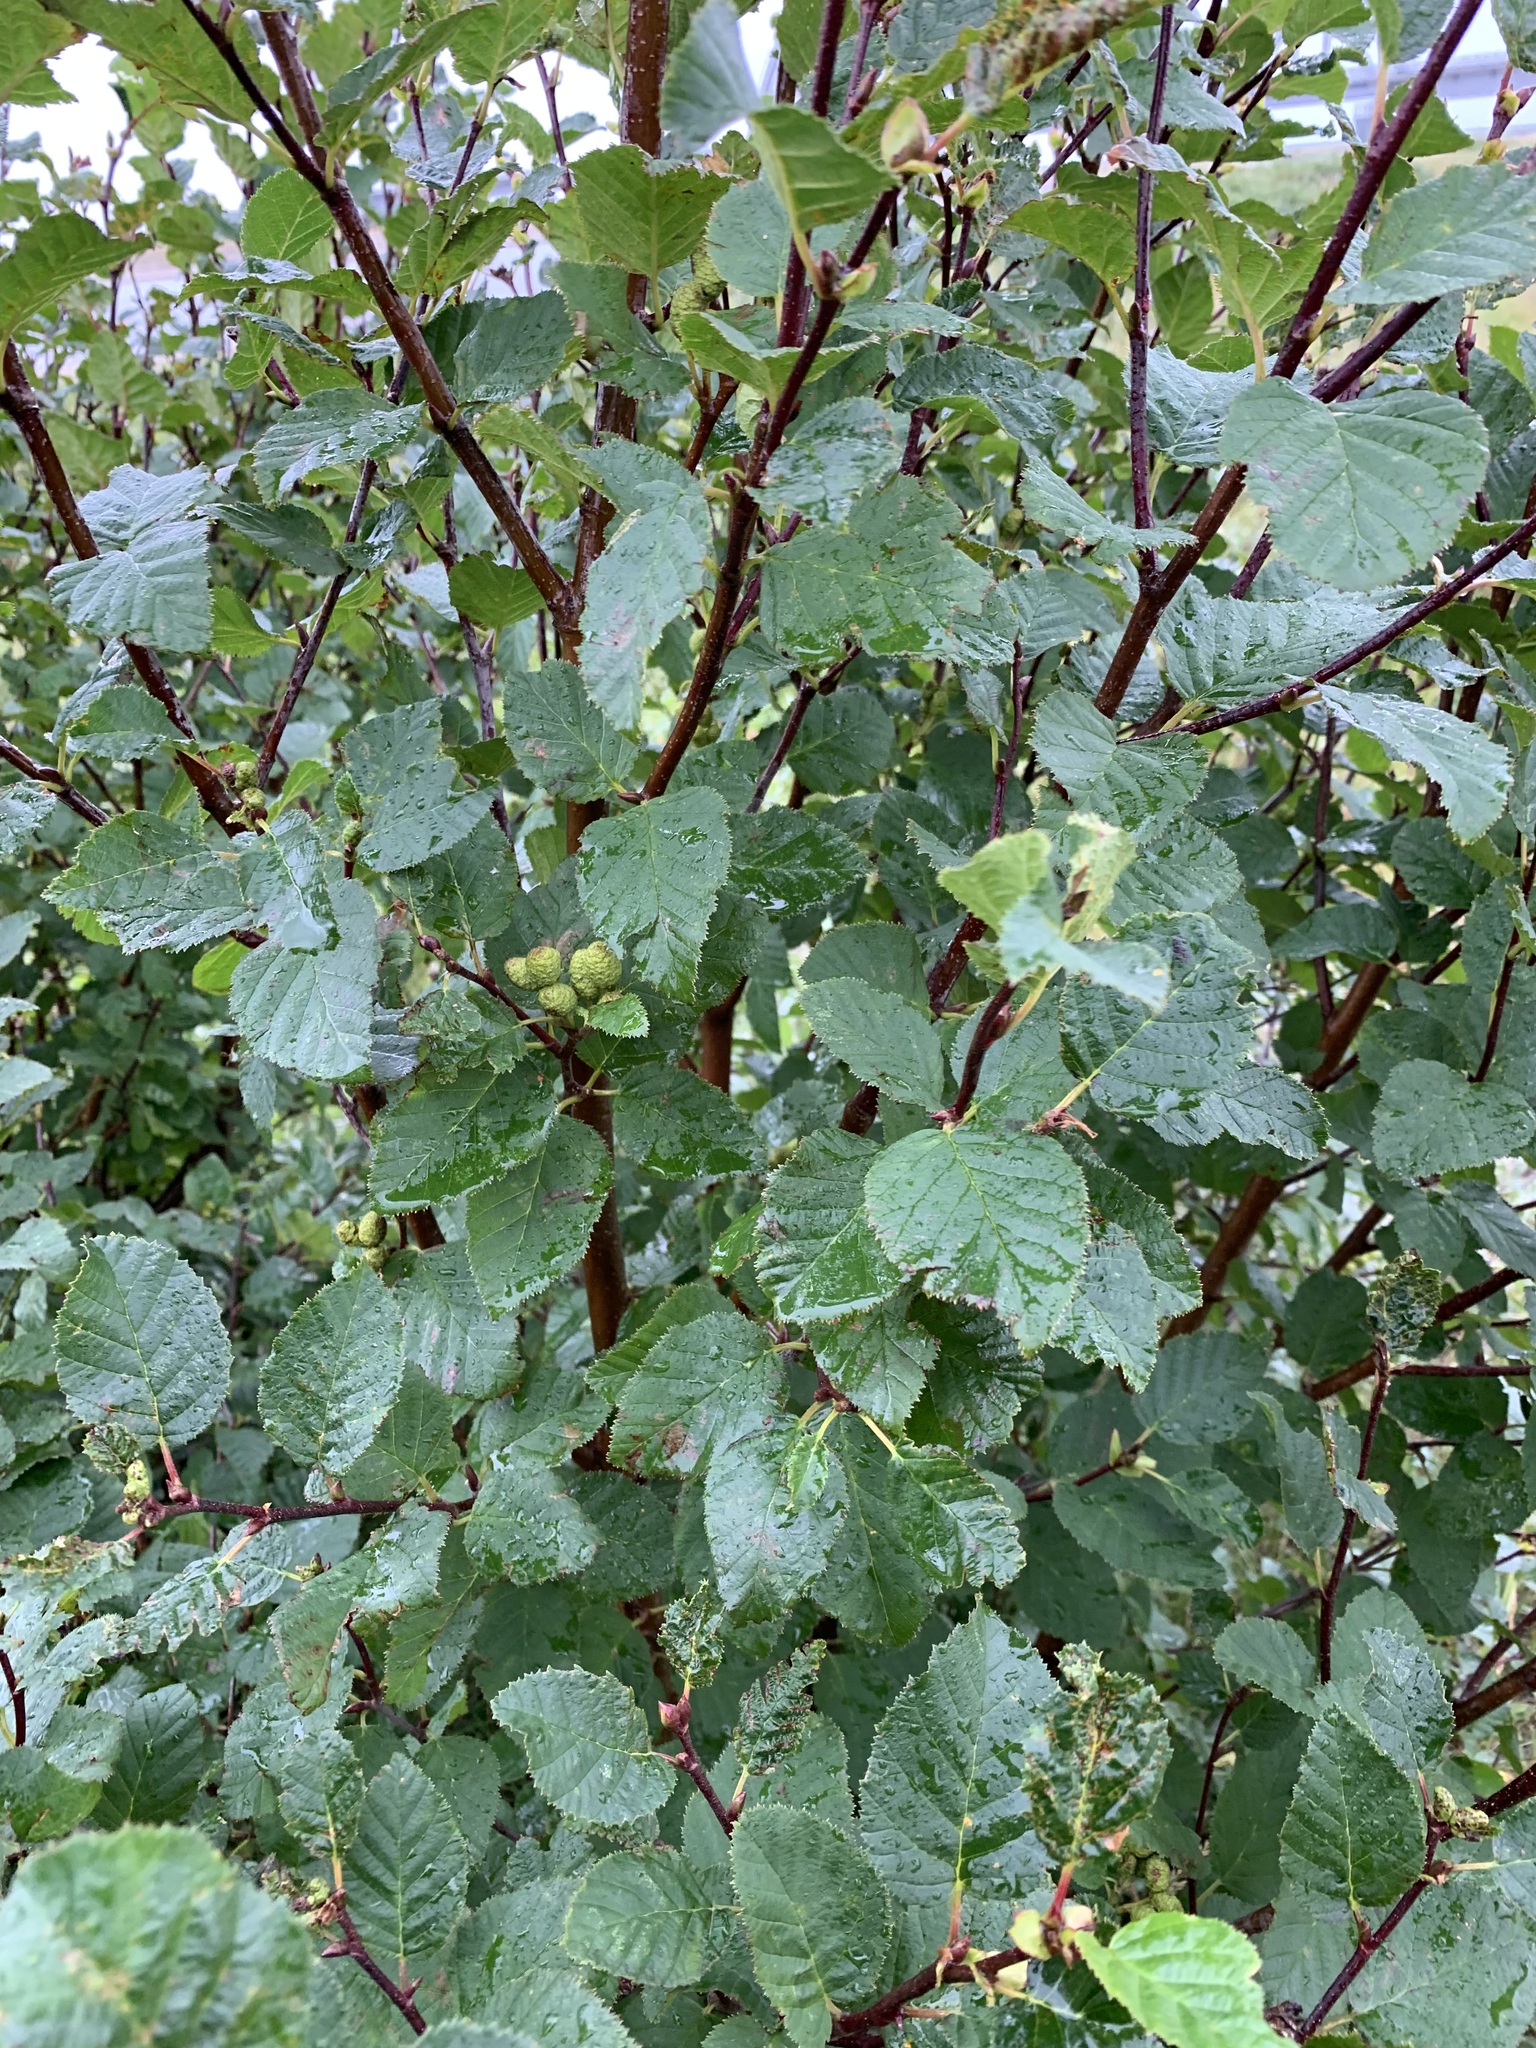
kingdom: Plantae
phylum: Tracheophyta
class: Magnoliopsida
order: Fagales
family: Betulaceae
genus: Alnus
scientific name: Alnus alnobetula
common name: Green alder
